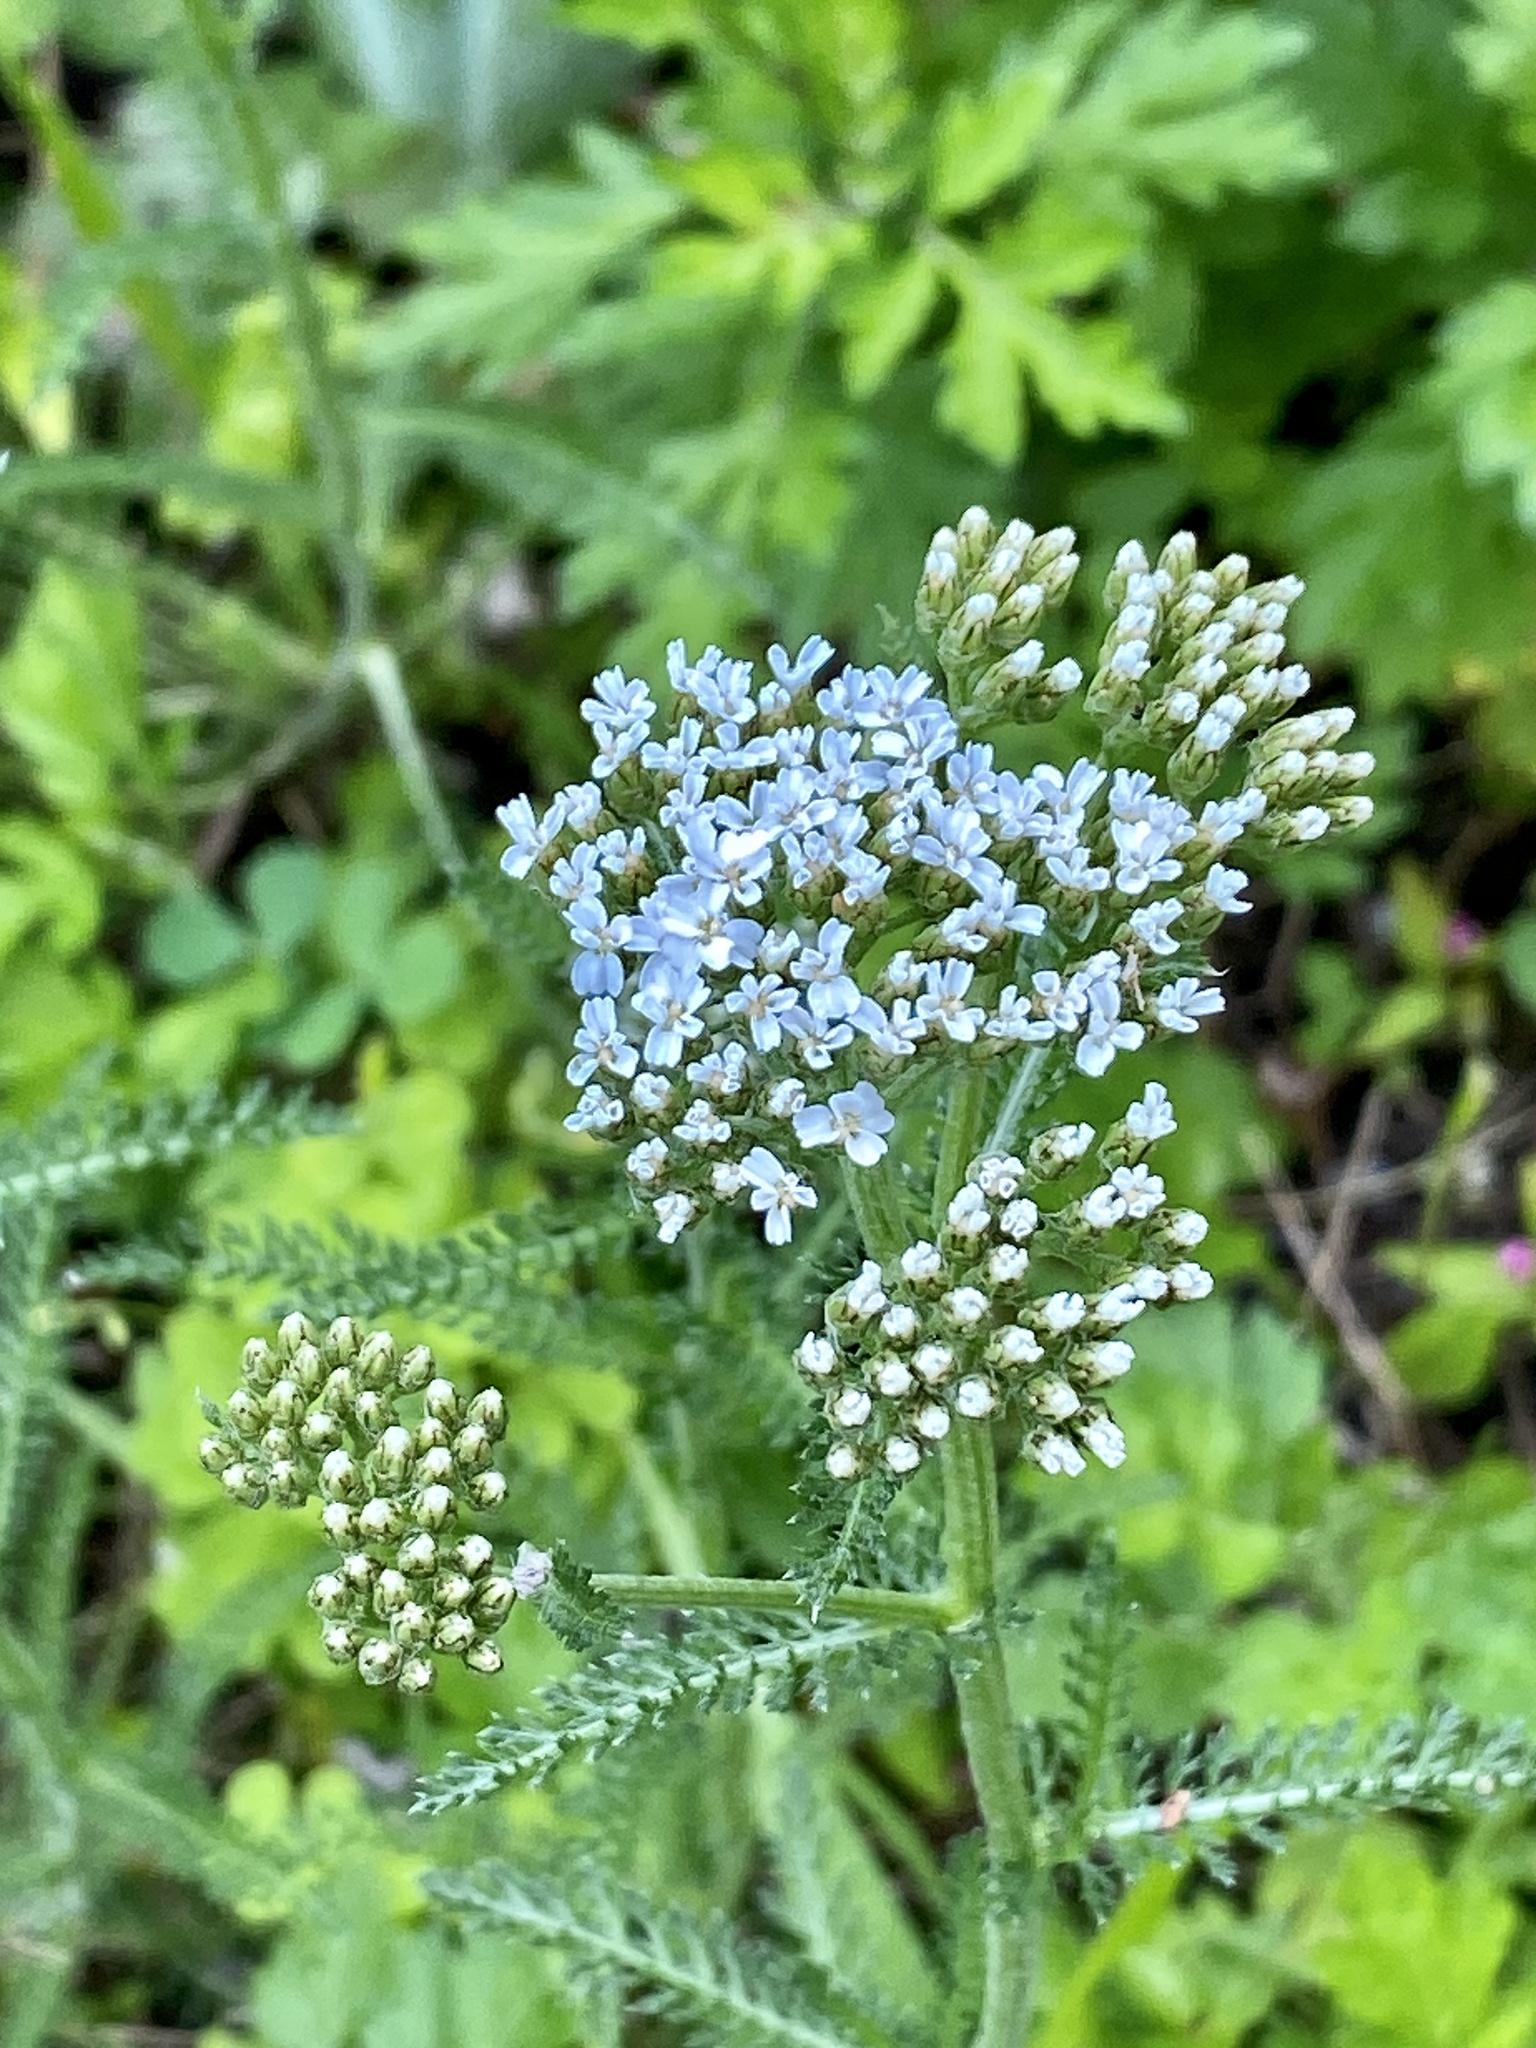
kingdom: Plantae
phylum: Tracheophyta
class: Magnoliopsida
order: Asterales
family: Asteraceae
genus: Achillea
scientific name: Achillea millefolium
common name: Yarrow
